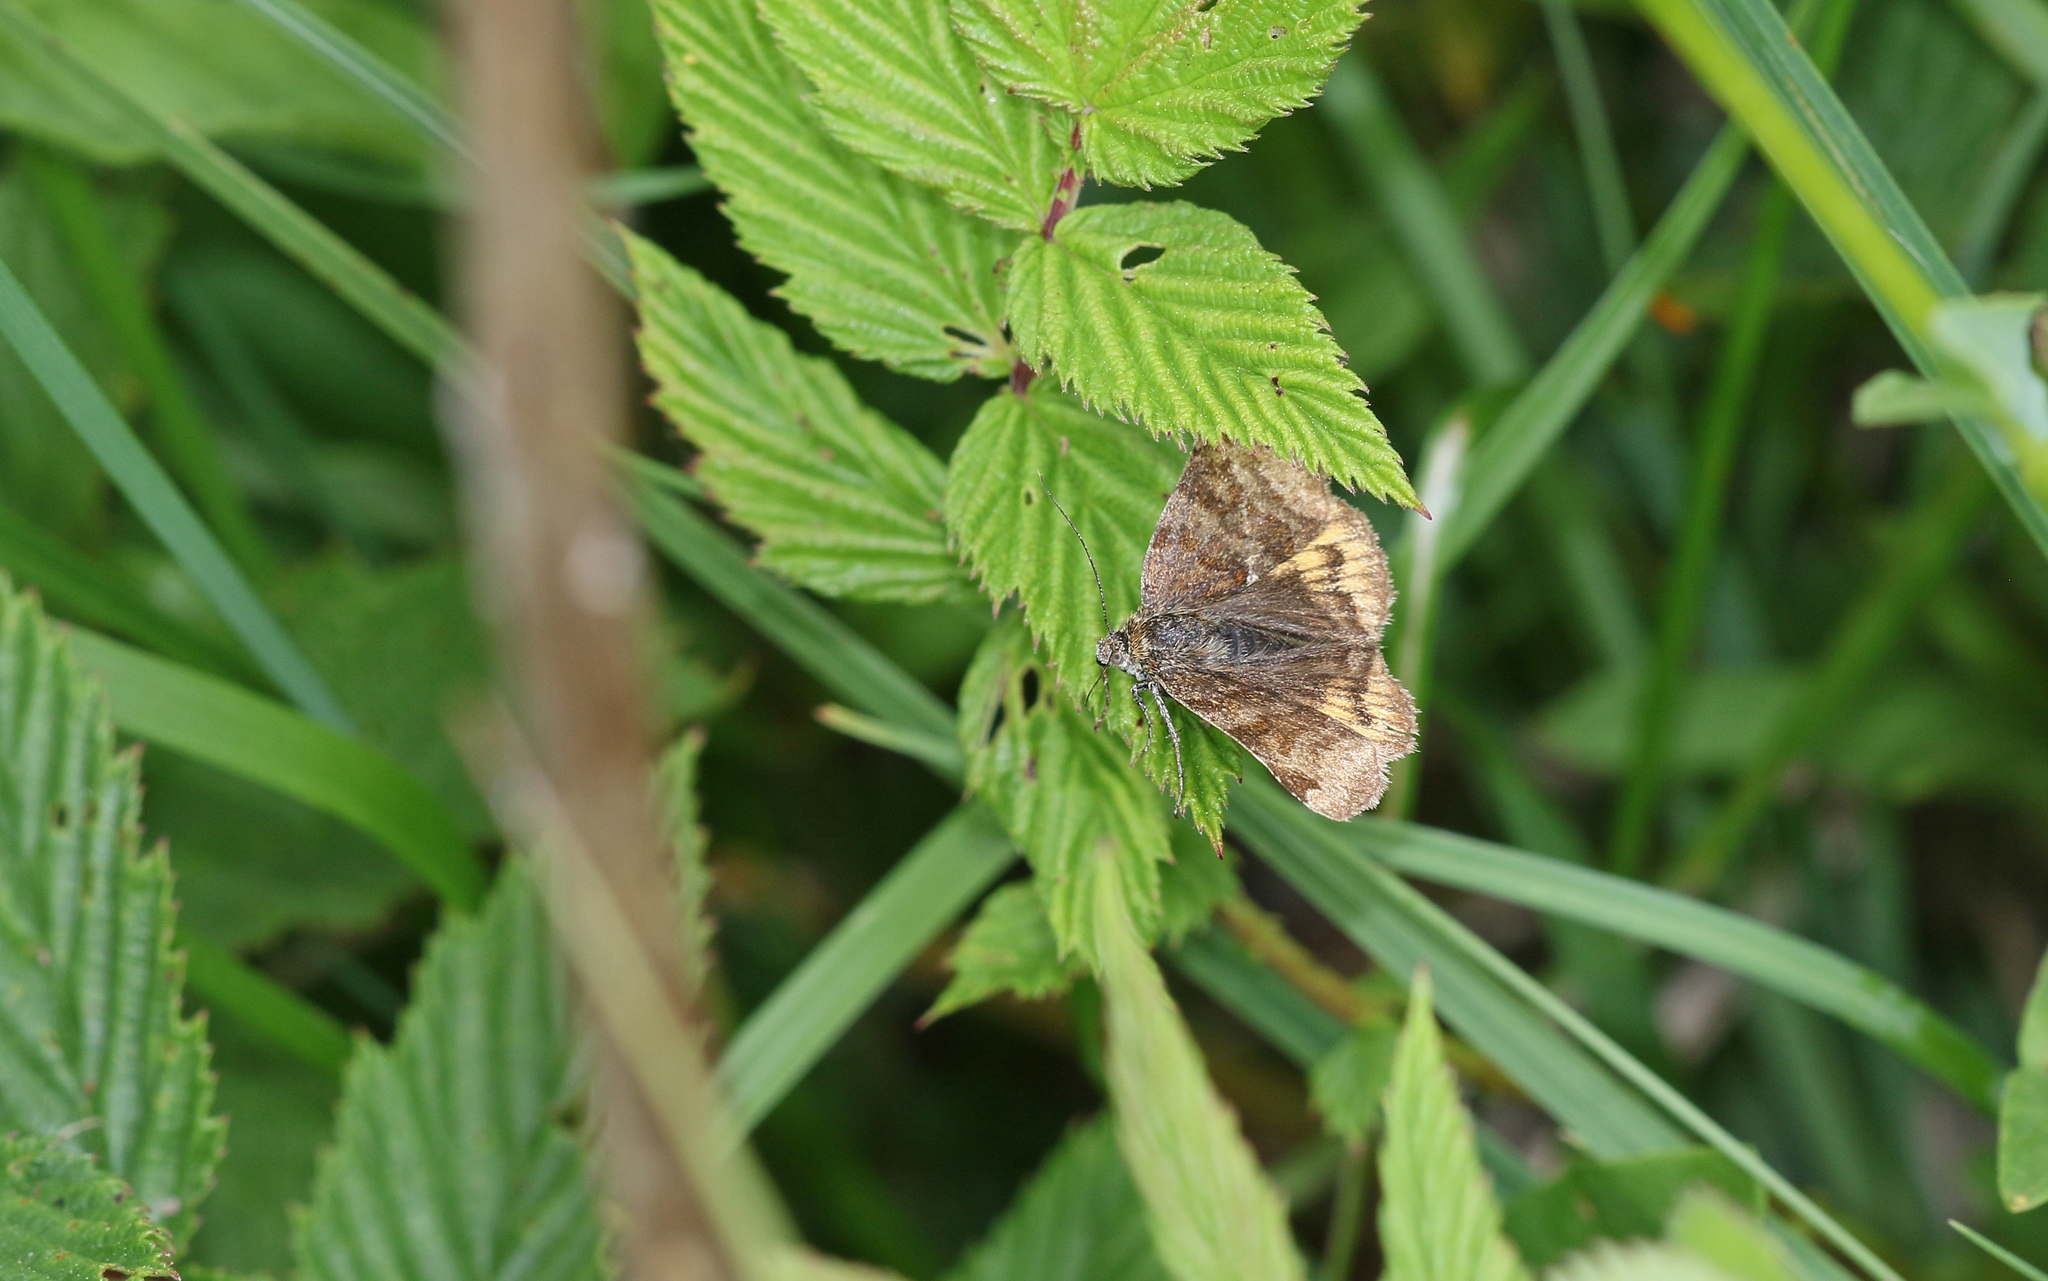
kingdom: Animalia
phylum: Arthropoda
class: Insecta
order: Lepidoptera
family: Erebidae
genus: Euclidia
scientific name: Euclidia glyphica
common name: Burnet companion
